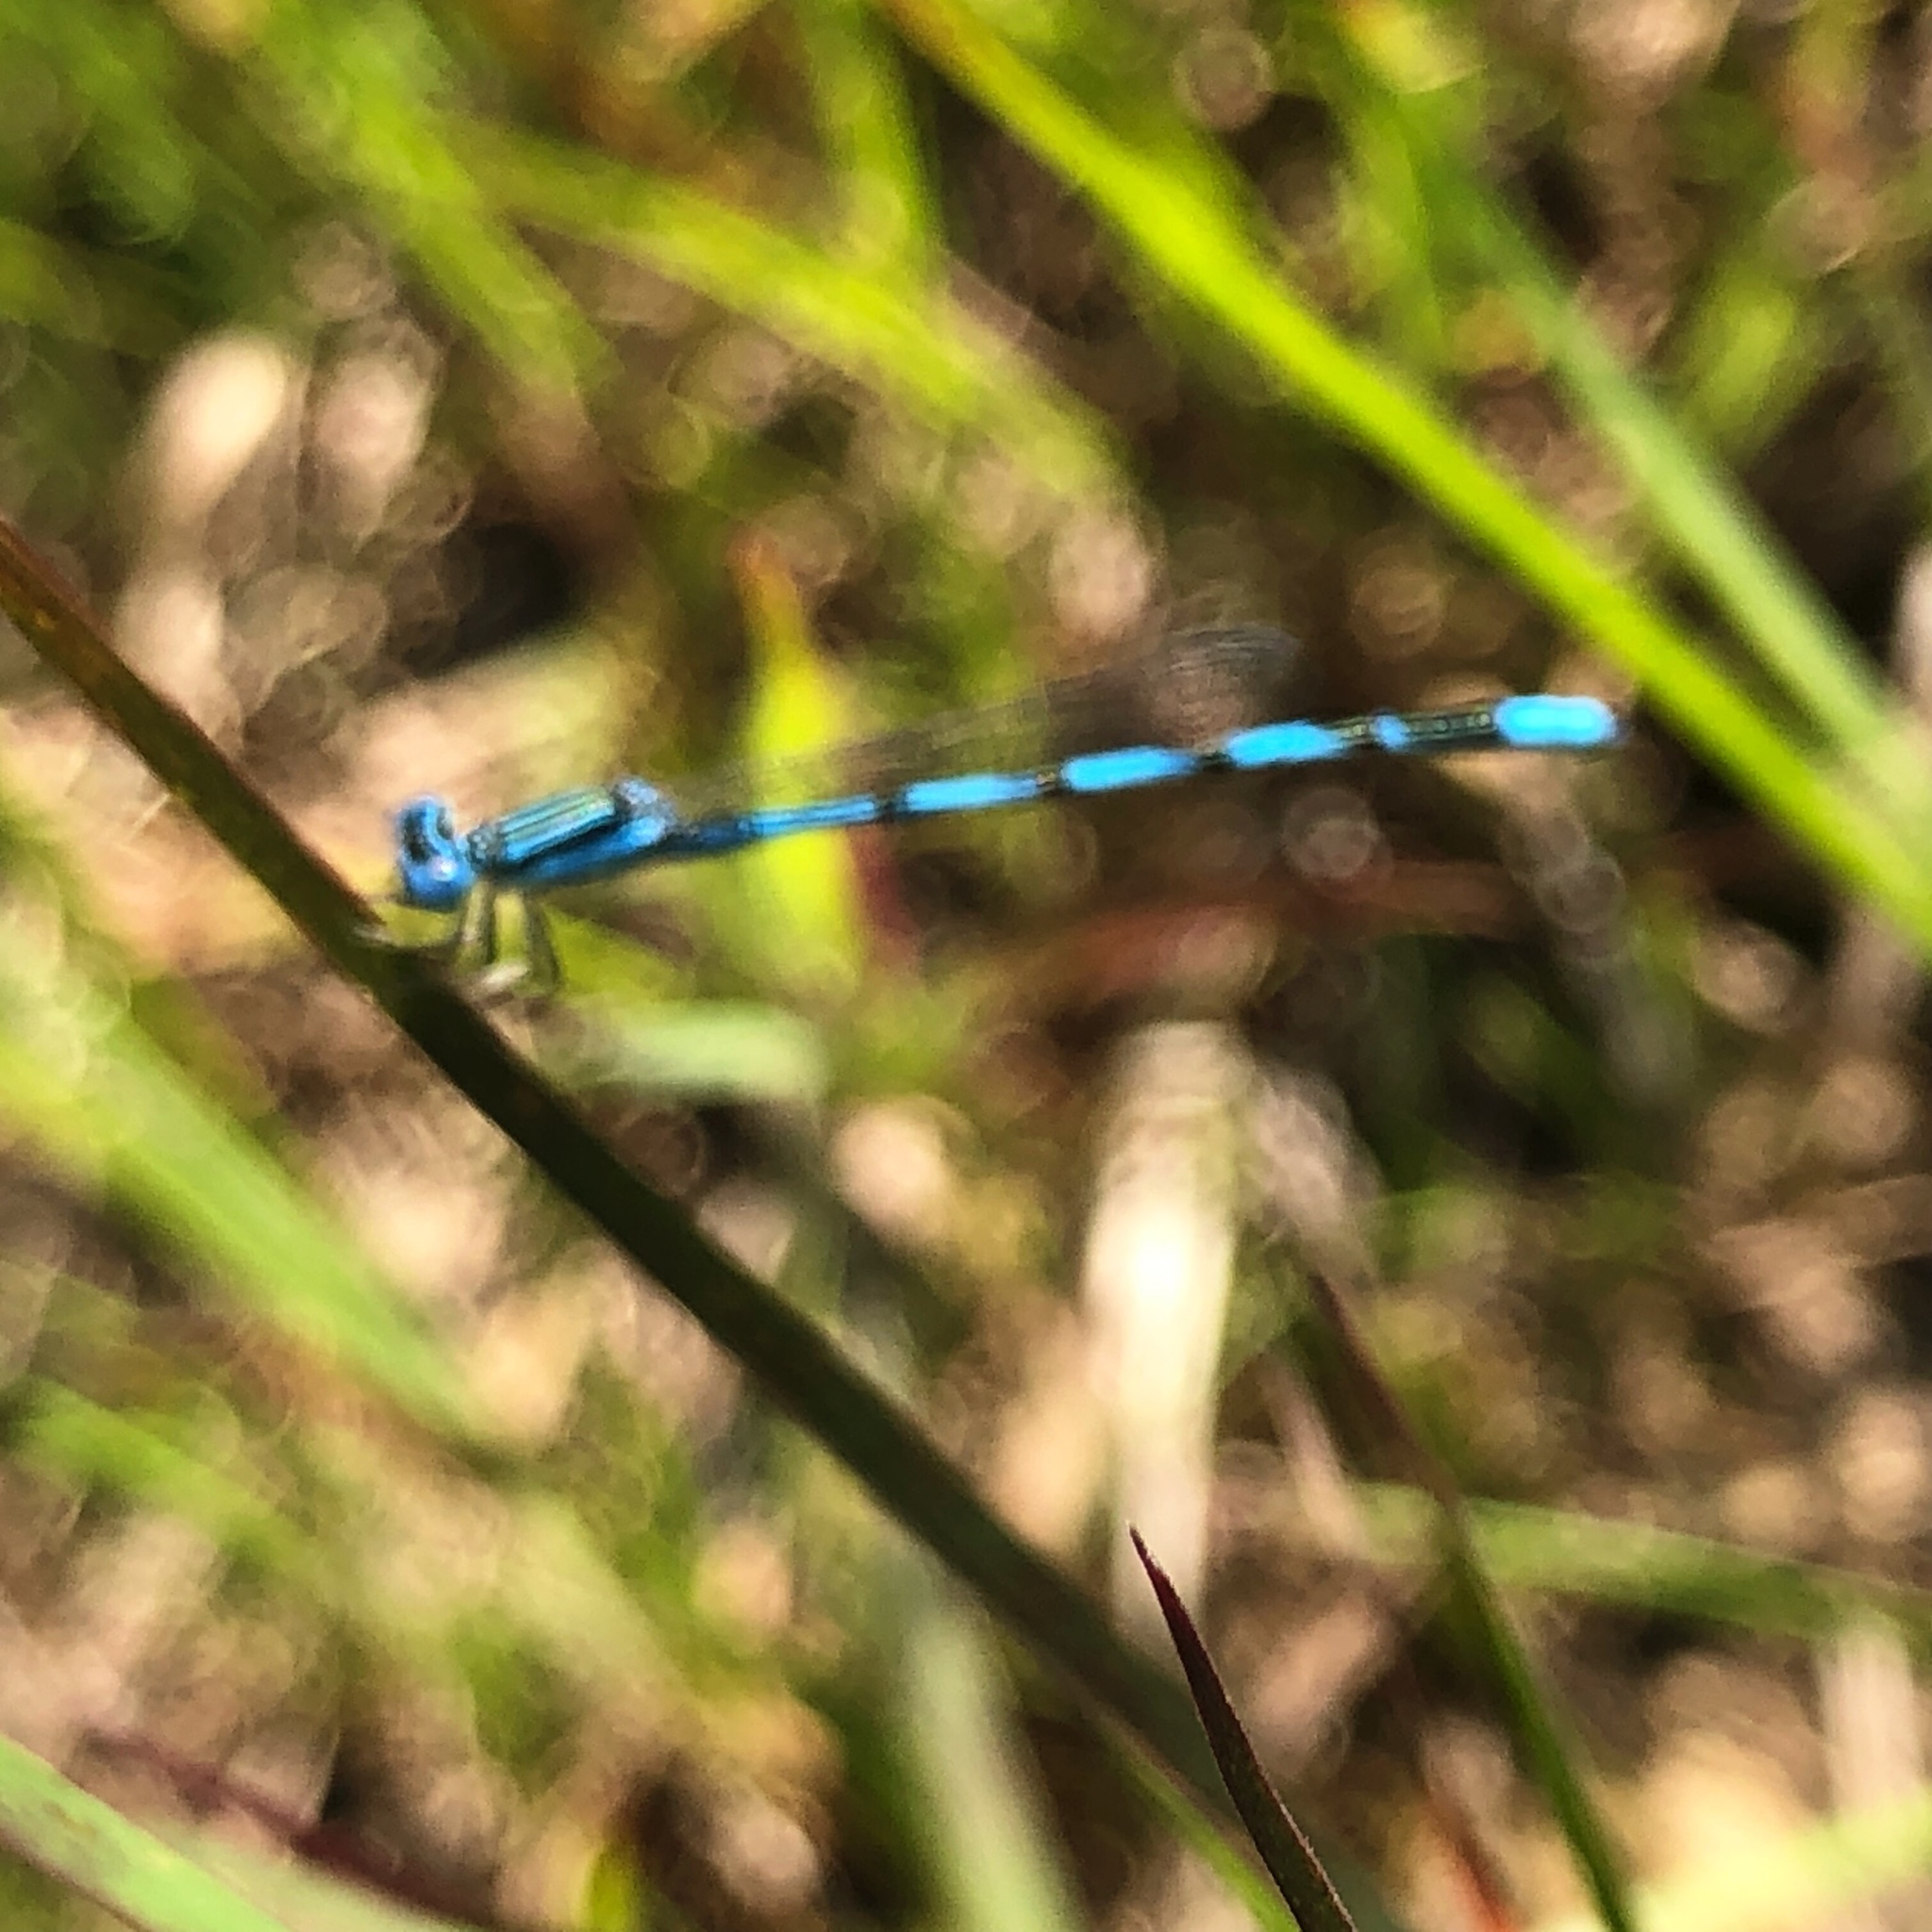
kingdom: Animalia
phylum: Arthropoda
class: Insecta
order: Odonata
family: Coenagrionidae
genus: Enallagma
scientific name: Enallagma basidens
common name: Double-striped bluet
